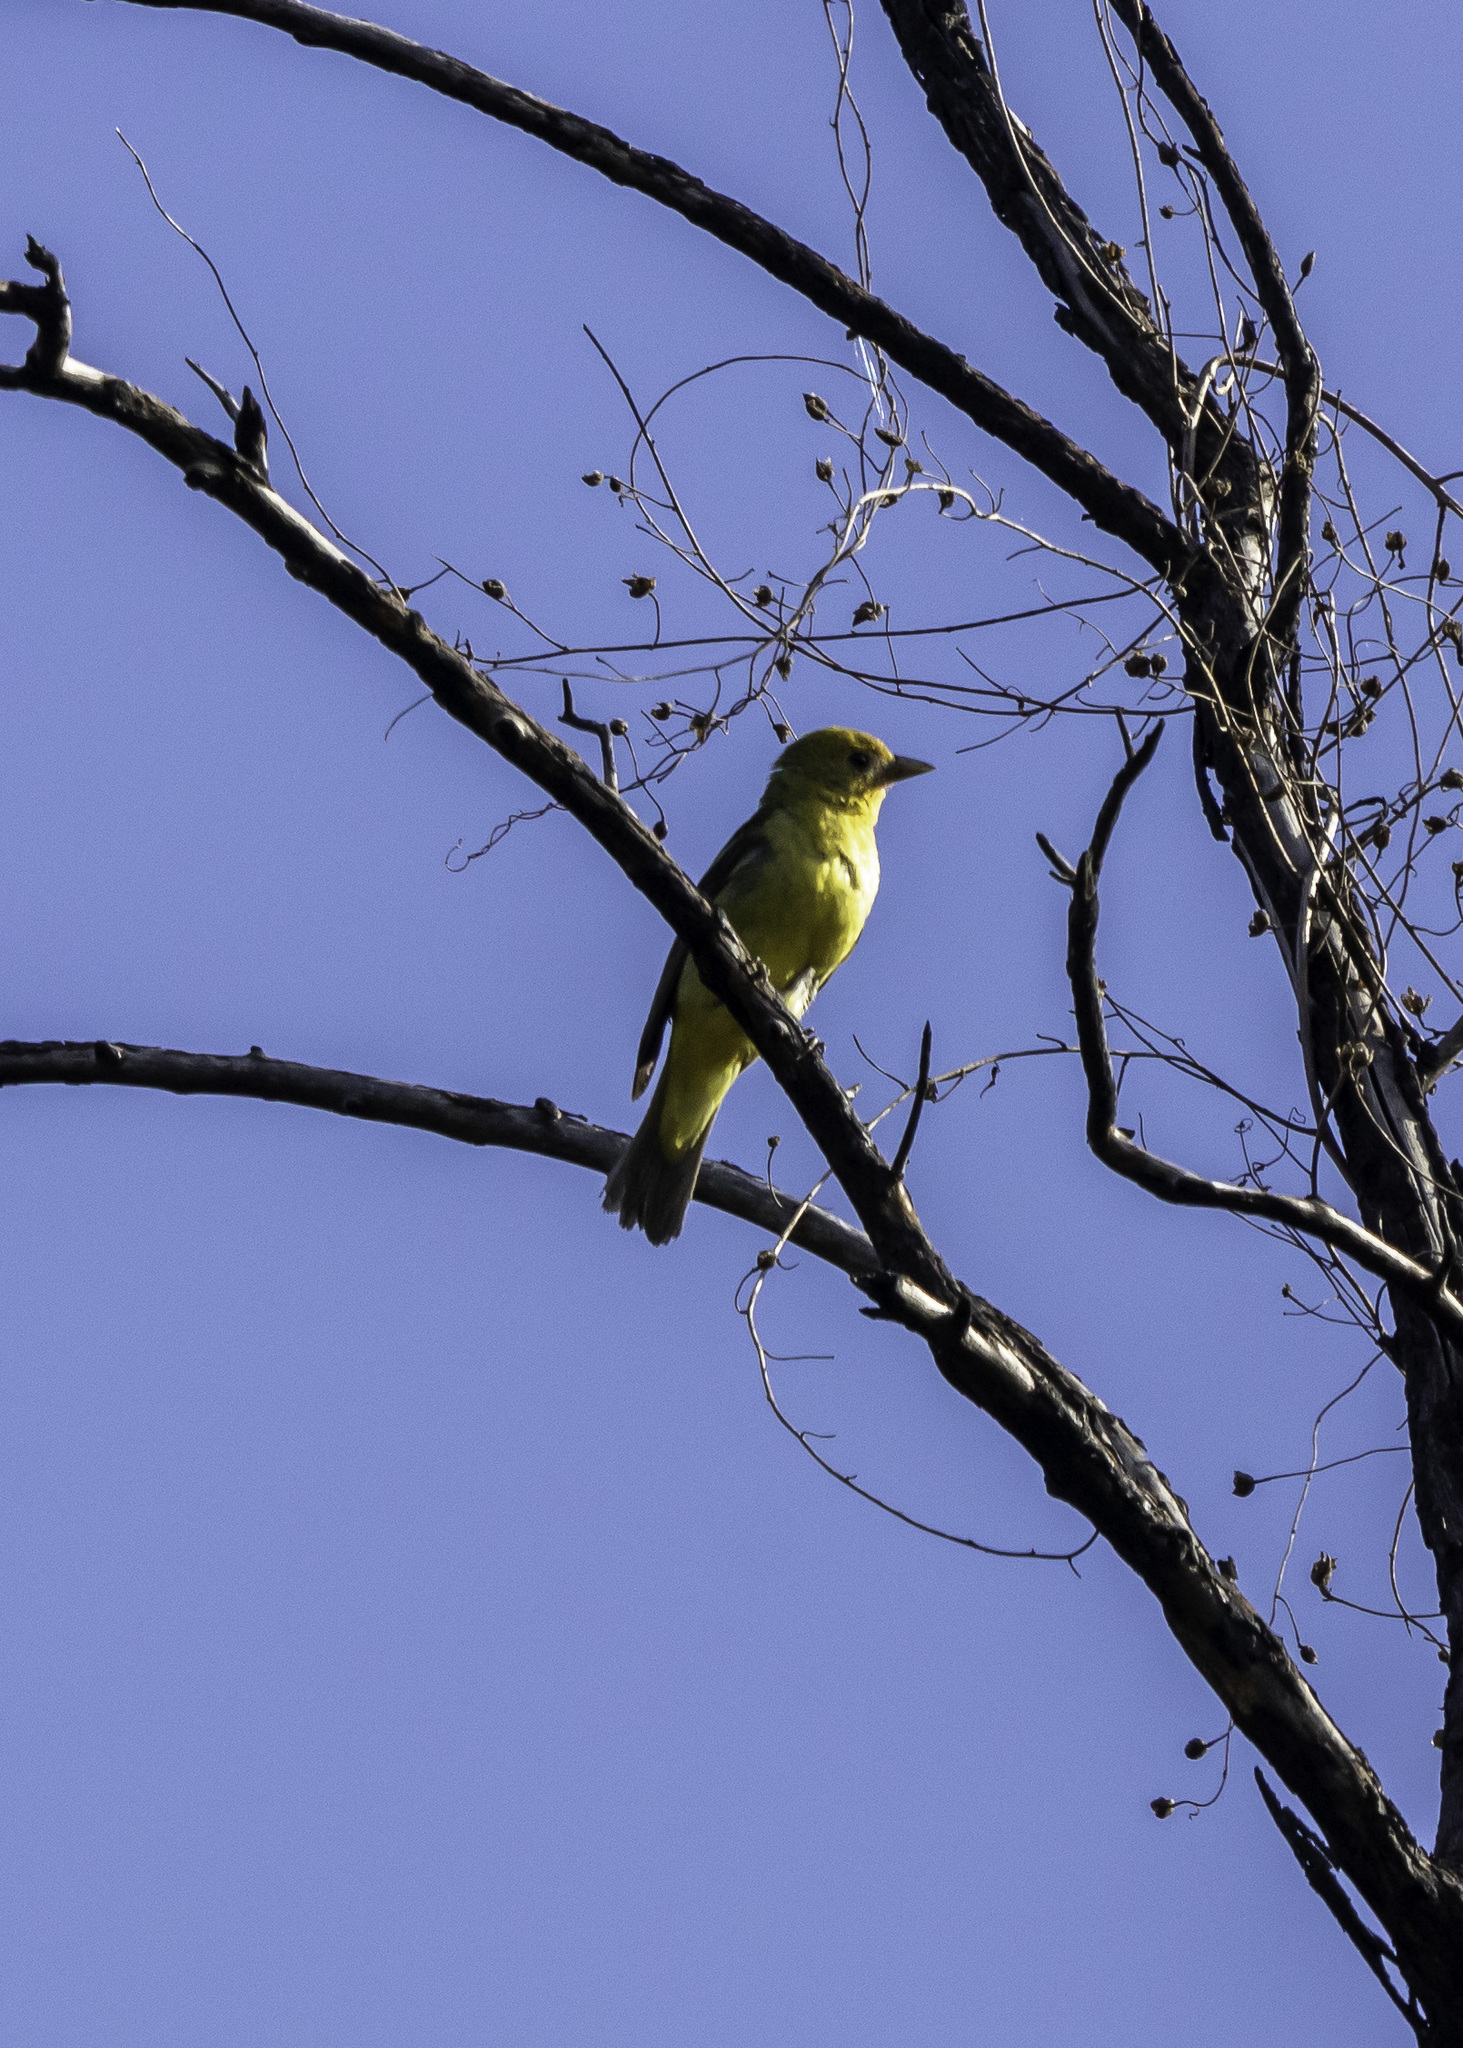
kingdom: Animalia
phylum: Chordata
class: Aves
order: Passeriformes
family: Cardinalidae
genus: Piranga
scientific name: Piranga ludoviciana
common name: Western tanager
